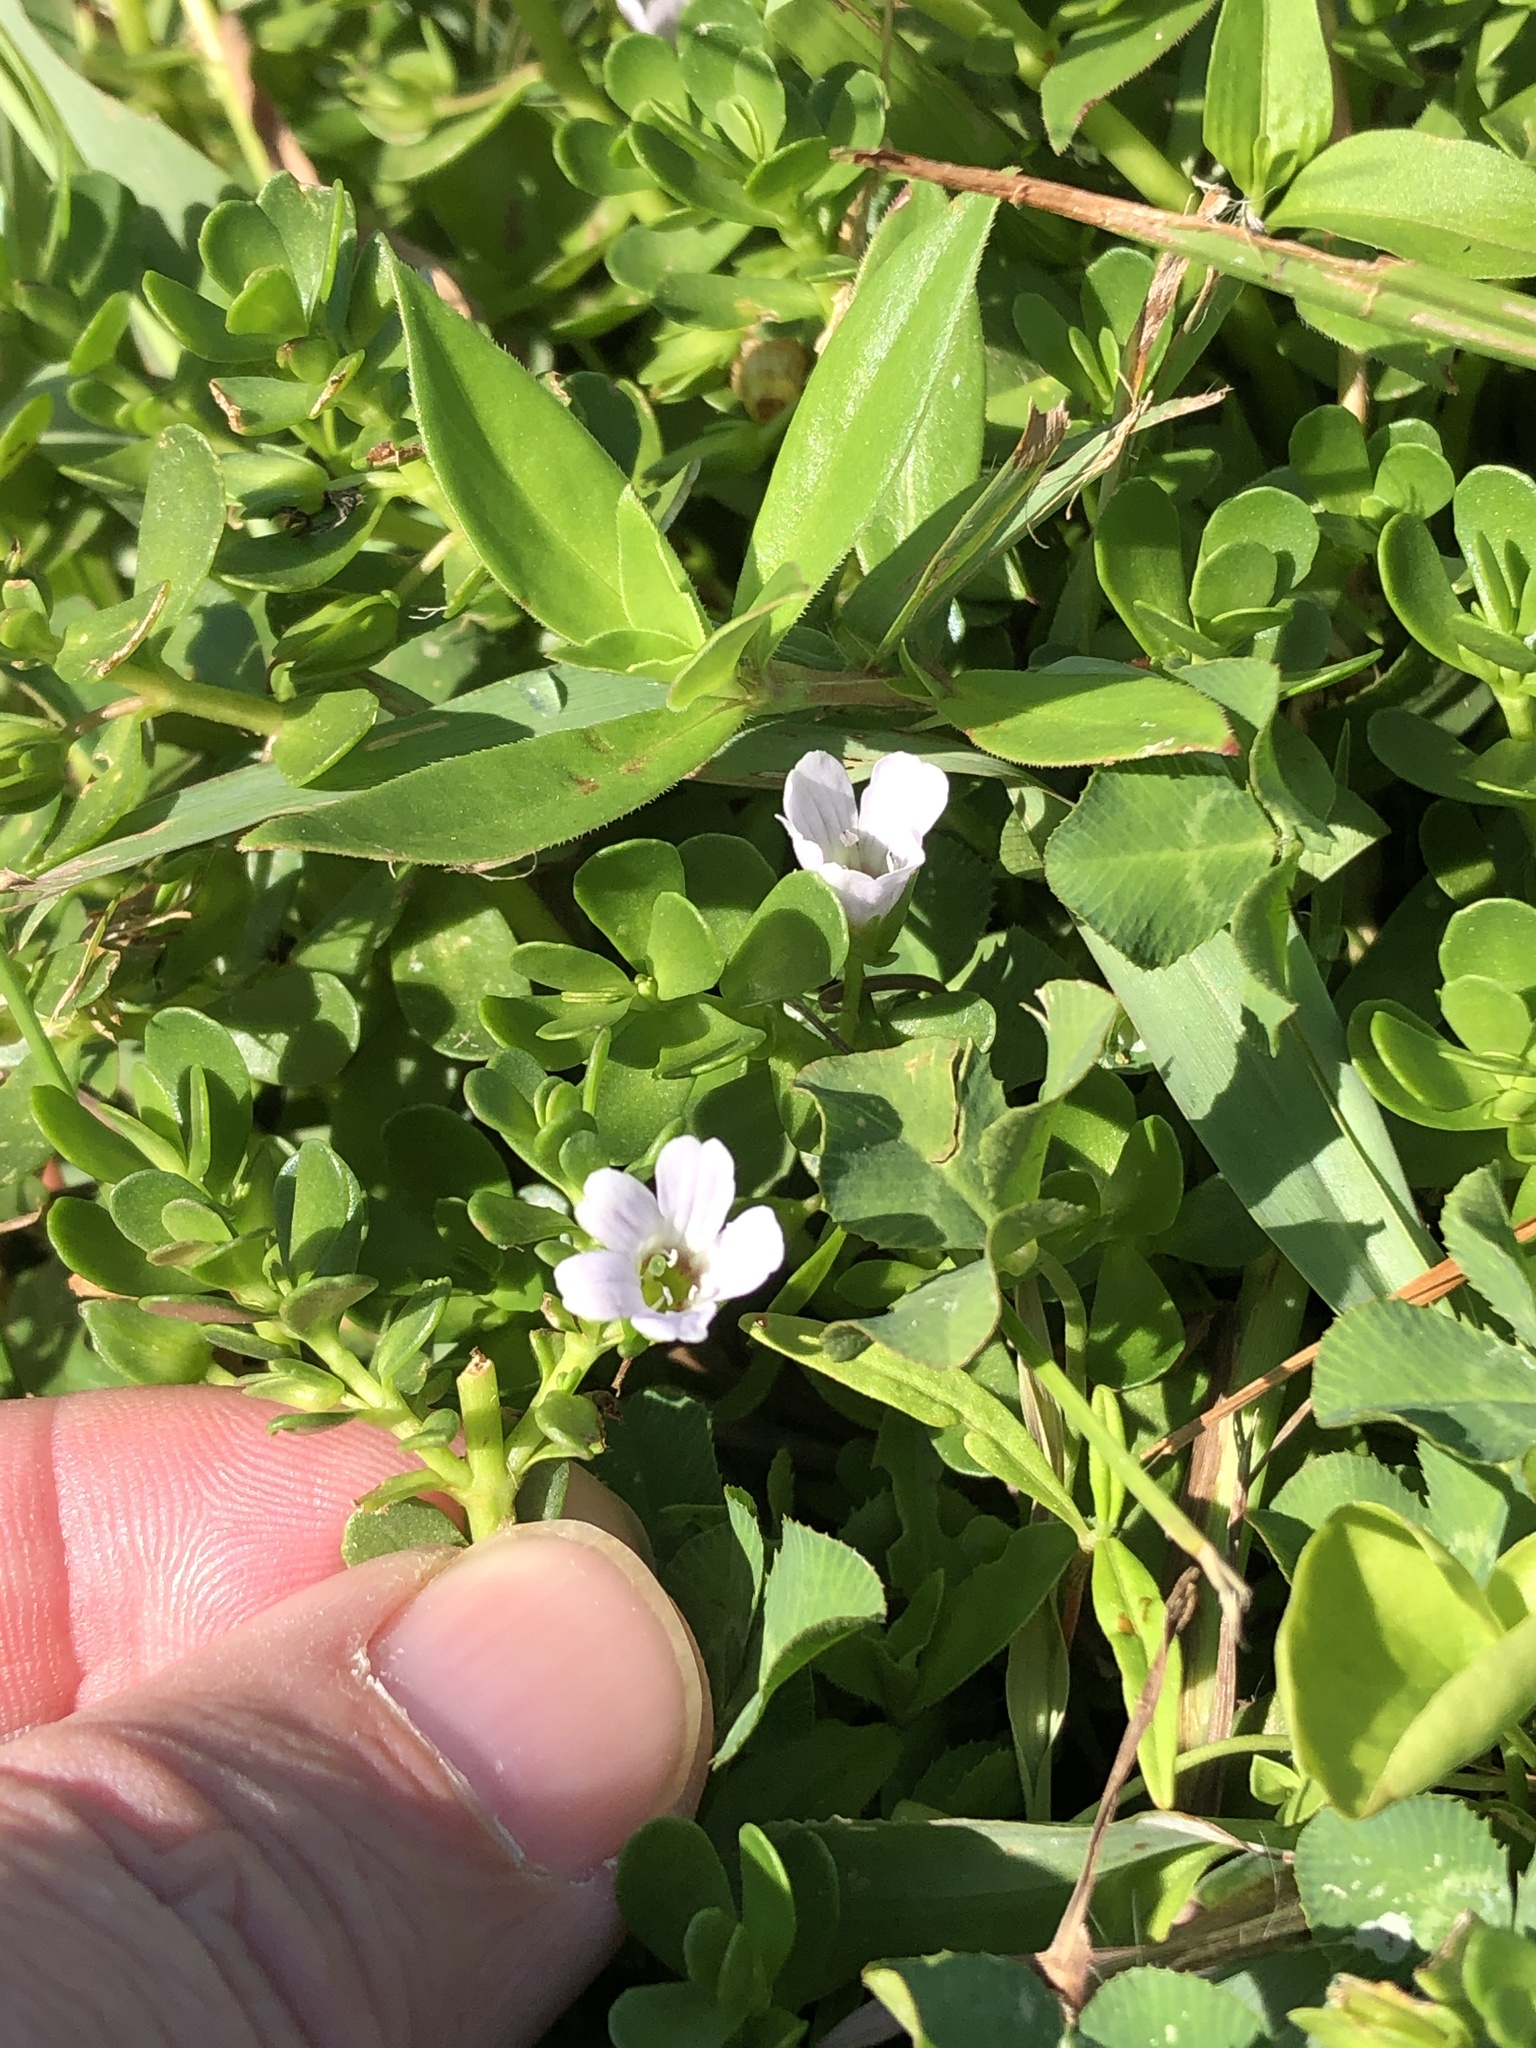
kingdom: Plantae
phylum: Tracheophyta
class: Magnoliopsida
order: Lamiales
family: Plantaginaceae
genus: Bacopa
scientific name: Bacopa monnieri
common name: Indian-pennywort
